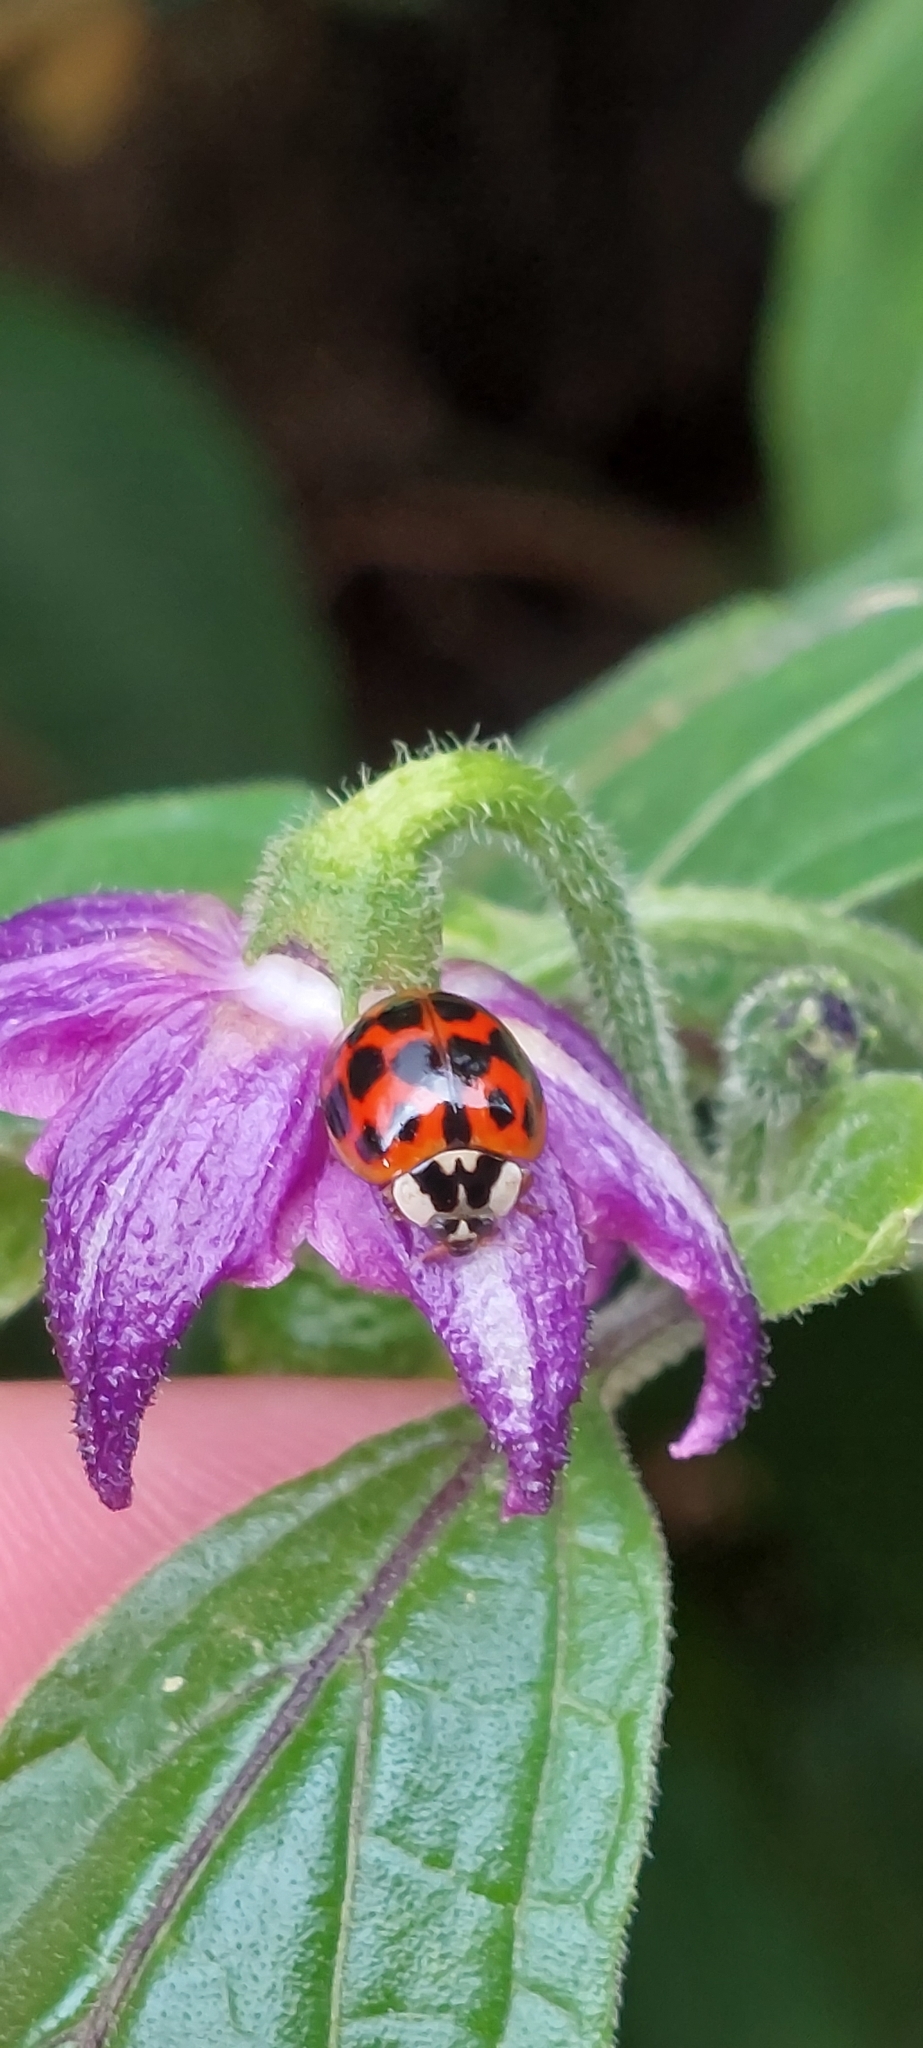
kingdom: Animalia
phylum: Arthropoda
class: Insecta
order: Coleoptera
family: Coccinellidae
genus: Harmonia
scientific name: Harmonia axyridis
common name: Harlequin ladybird
